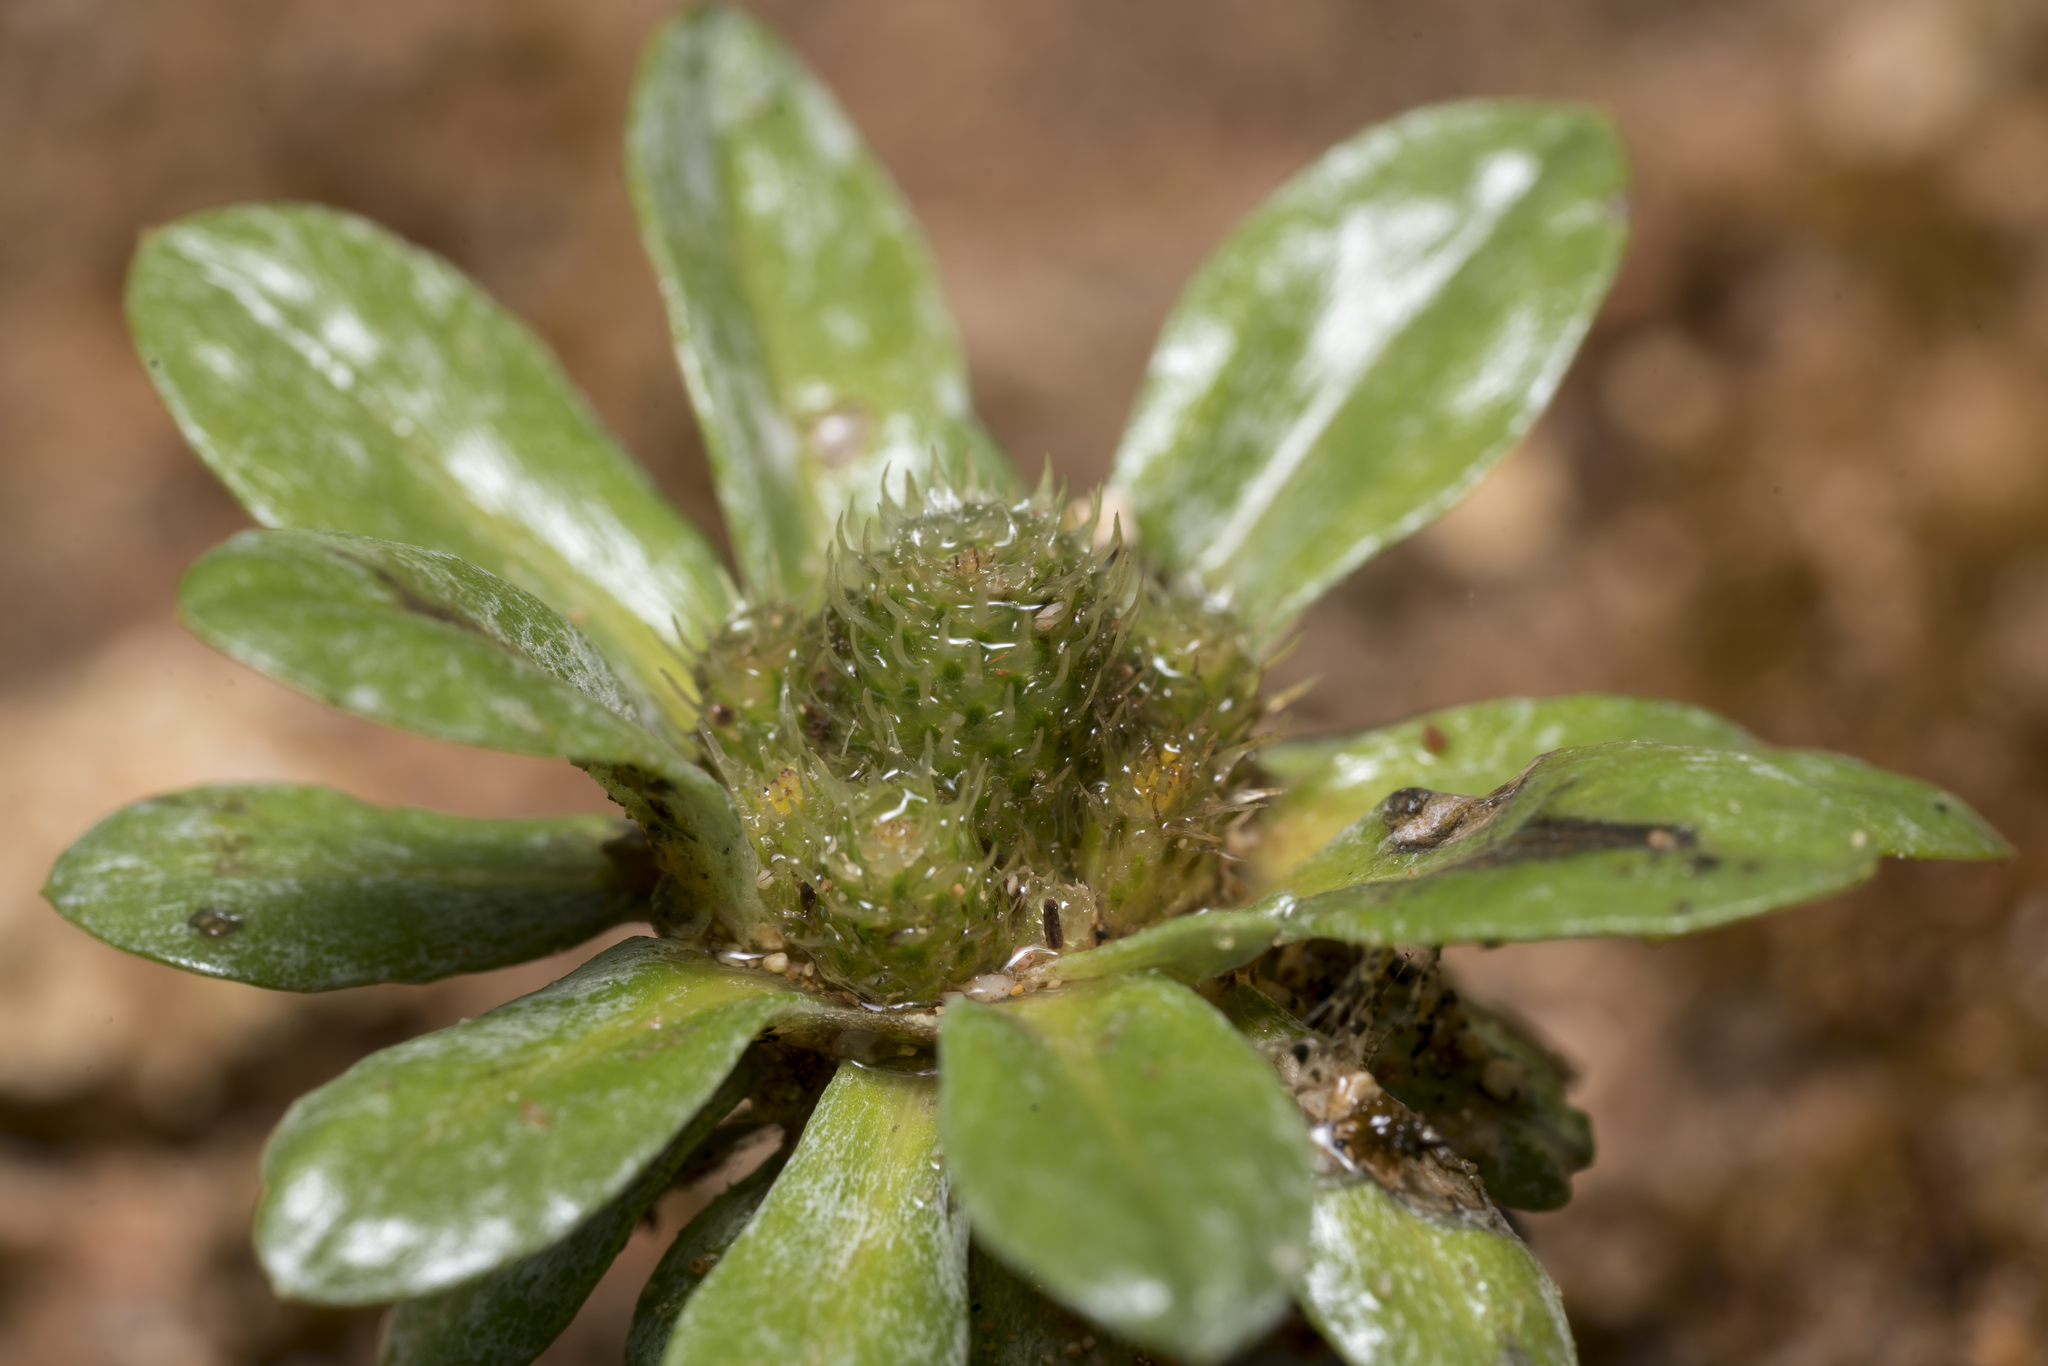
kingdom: Plantae
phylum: Tracheophyta
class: Magnoliopsida
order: Asterales
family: Asteraceae
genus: Filago
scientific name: Filago pygmaea
